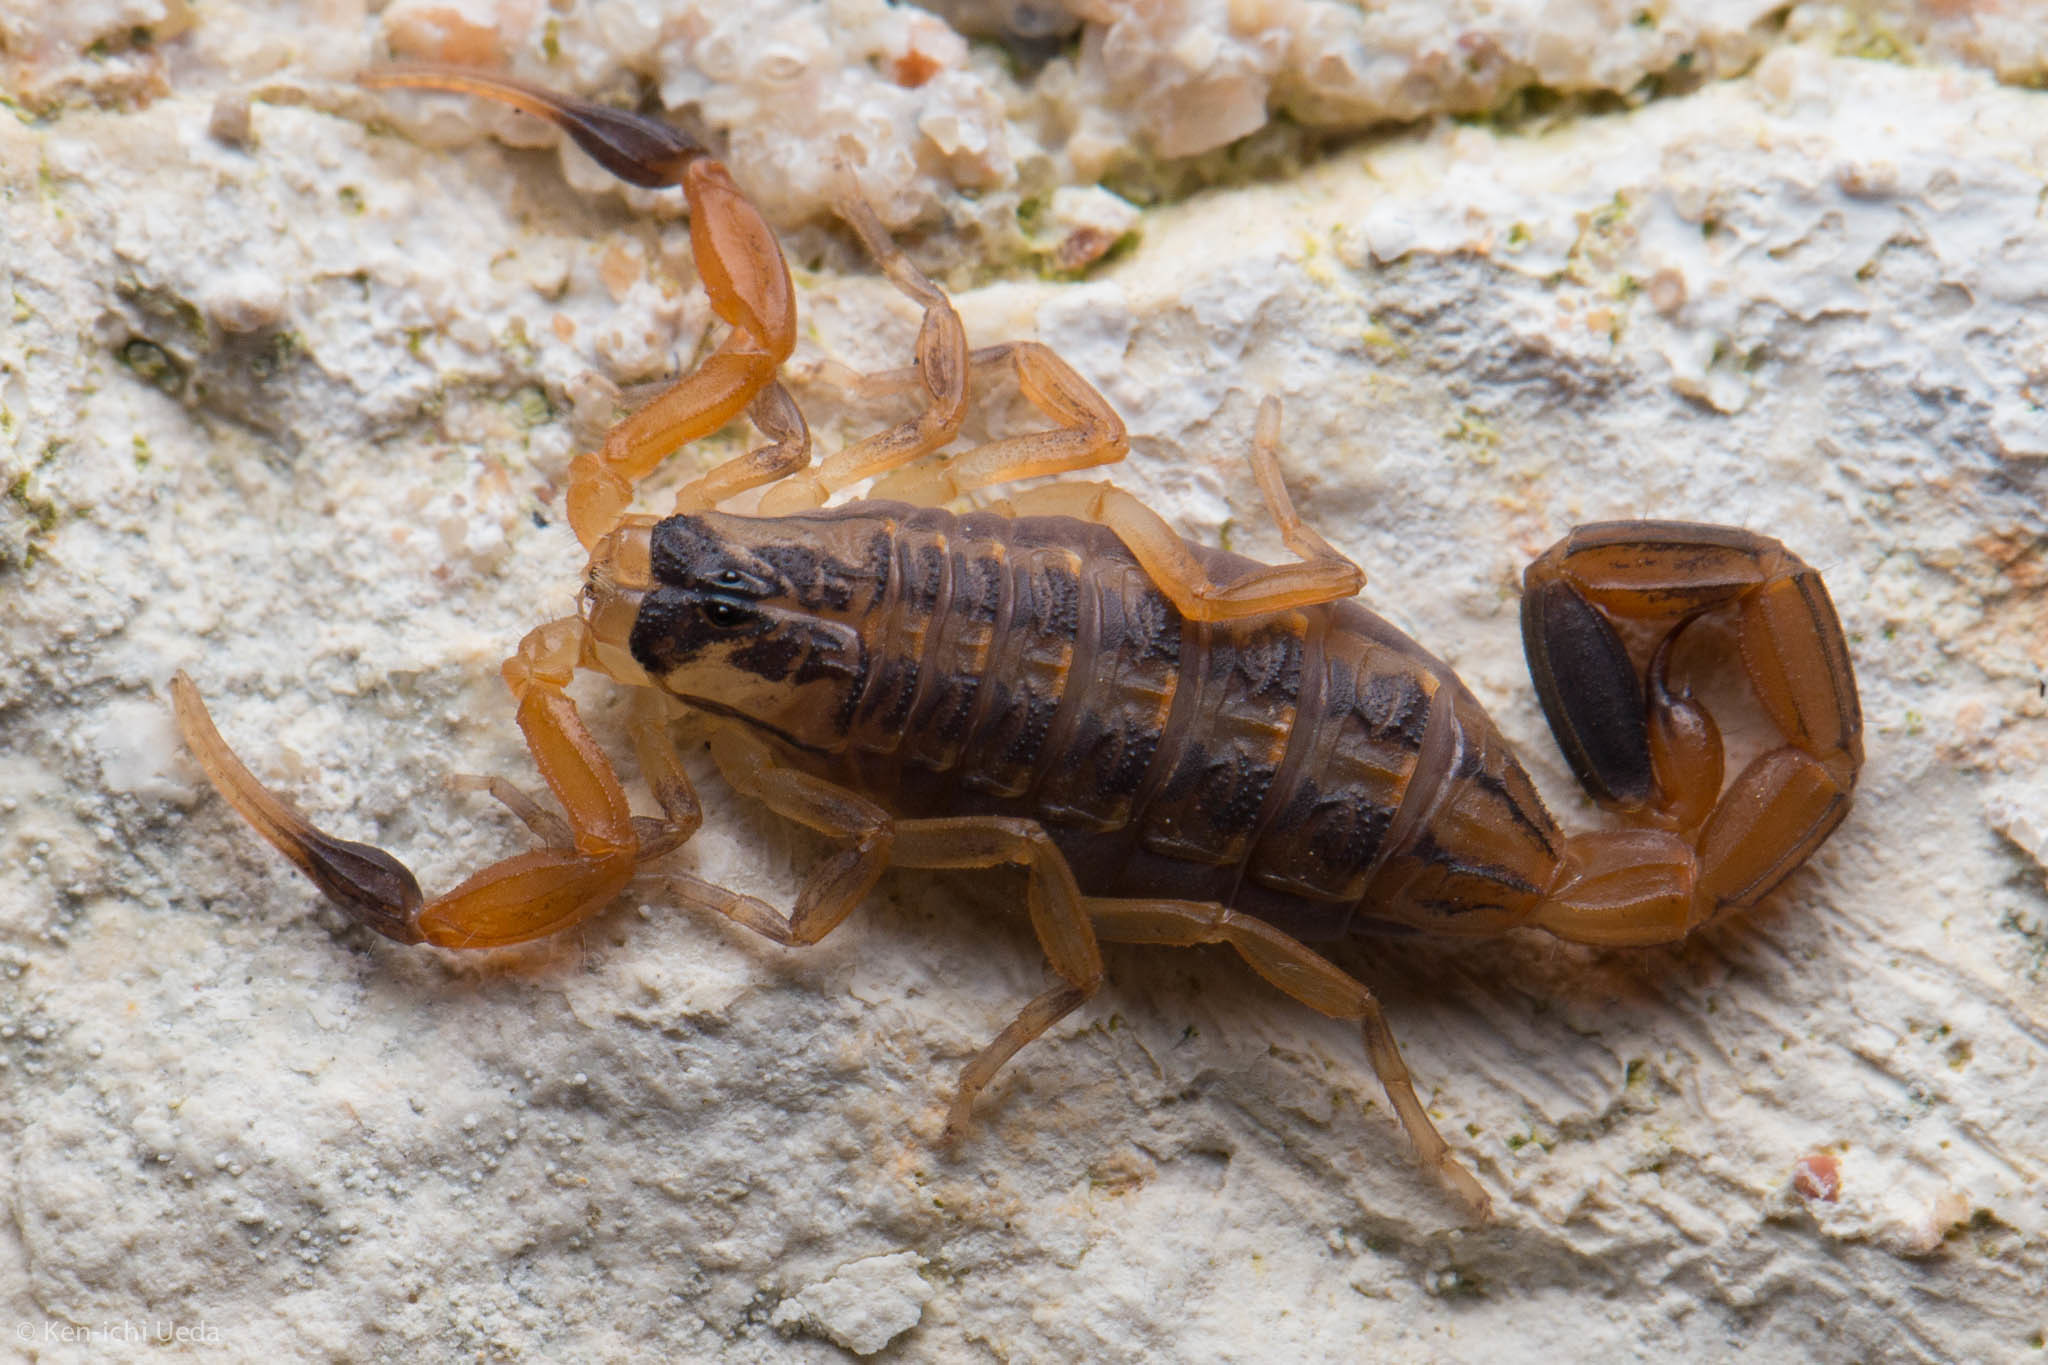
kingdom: Animalia
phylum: Arthropoda
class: Arachnida
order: Scorpiones
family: Buthidae
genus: Centruroides
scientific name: Centruroides vittatus
